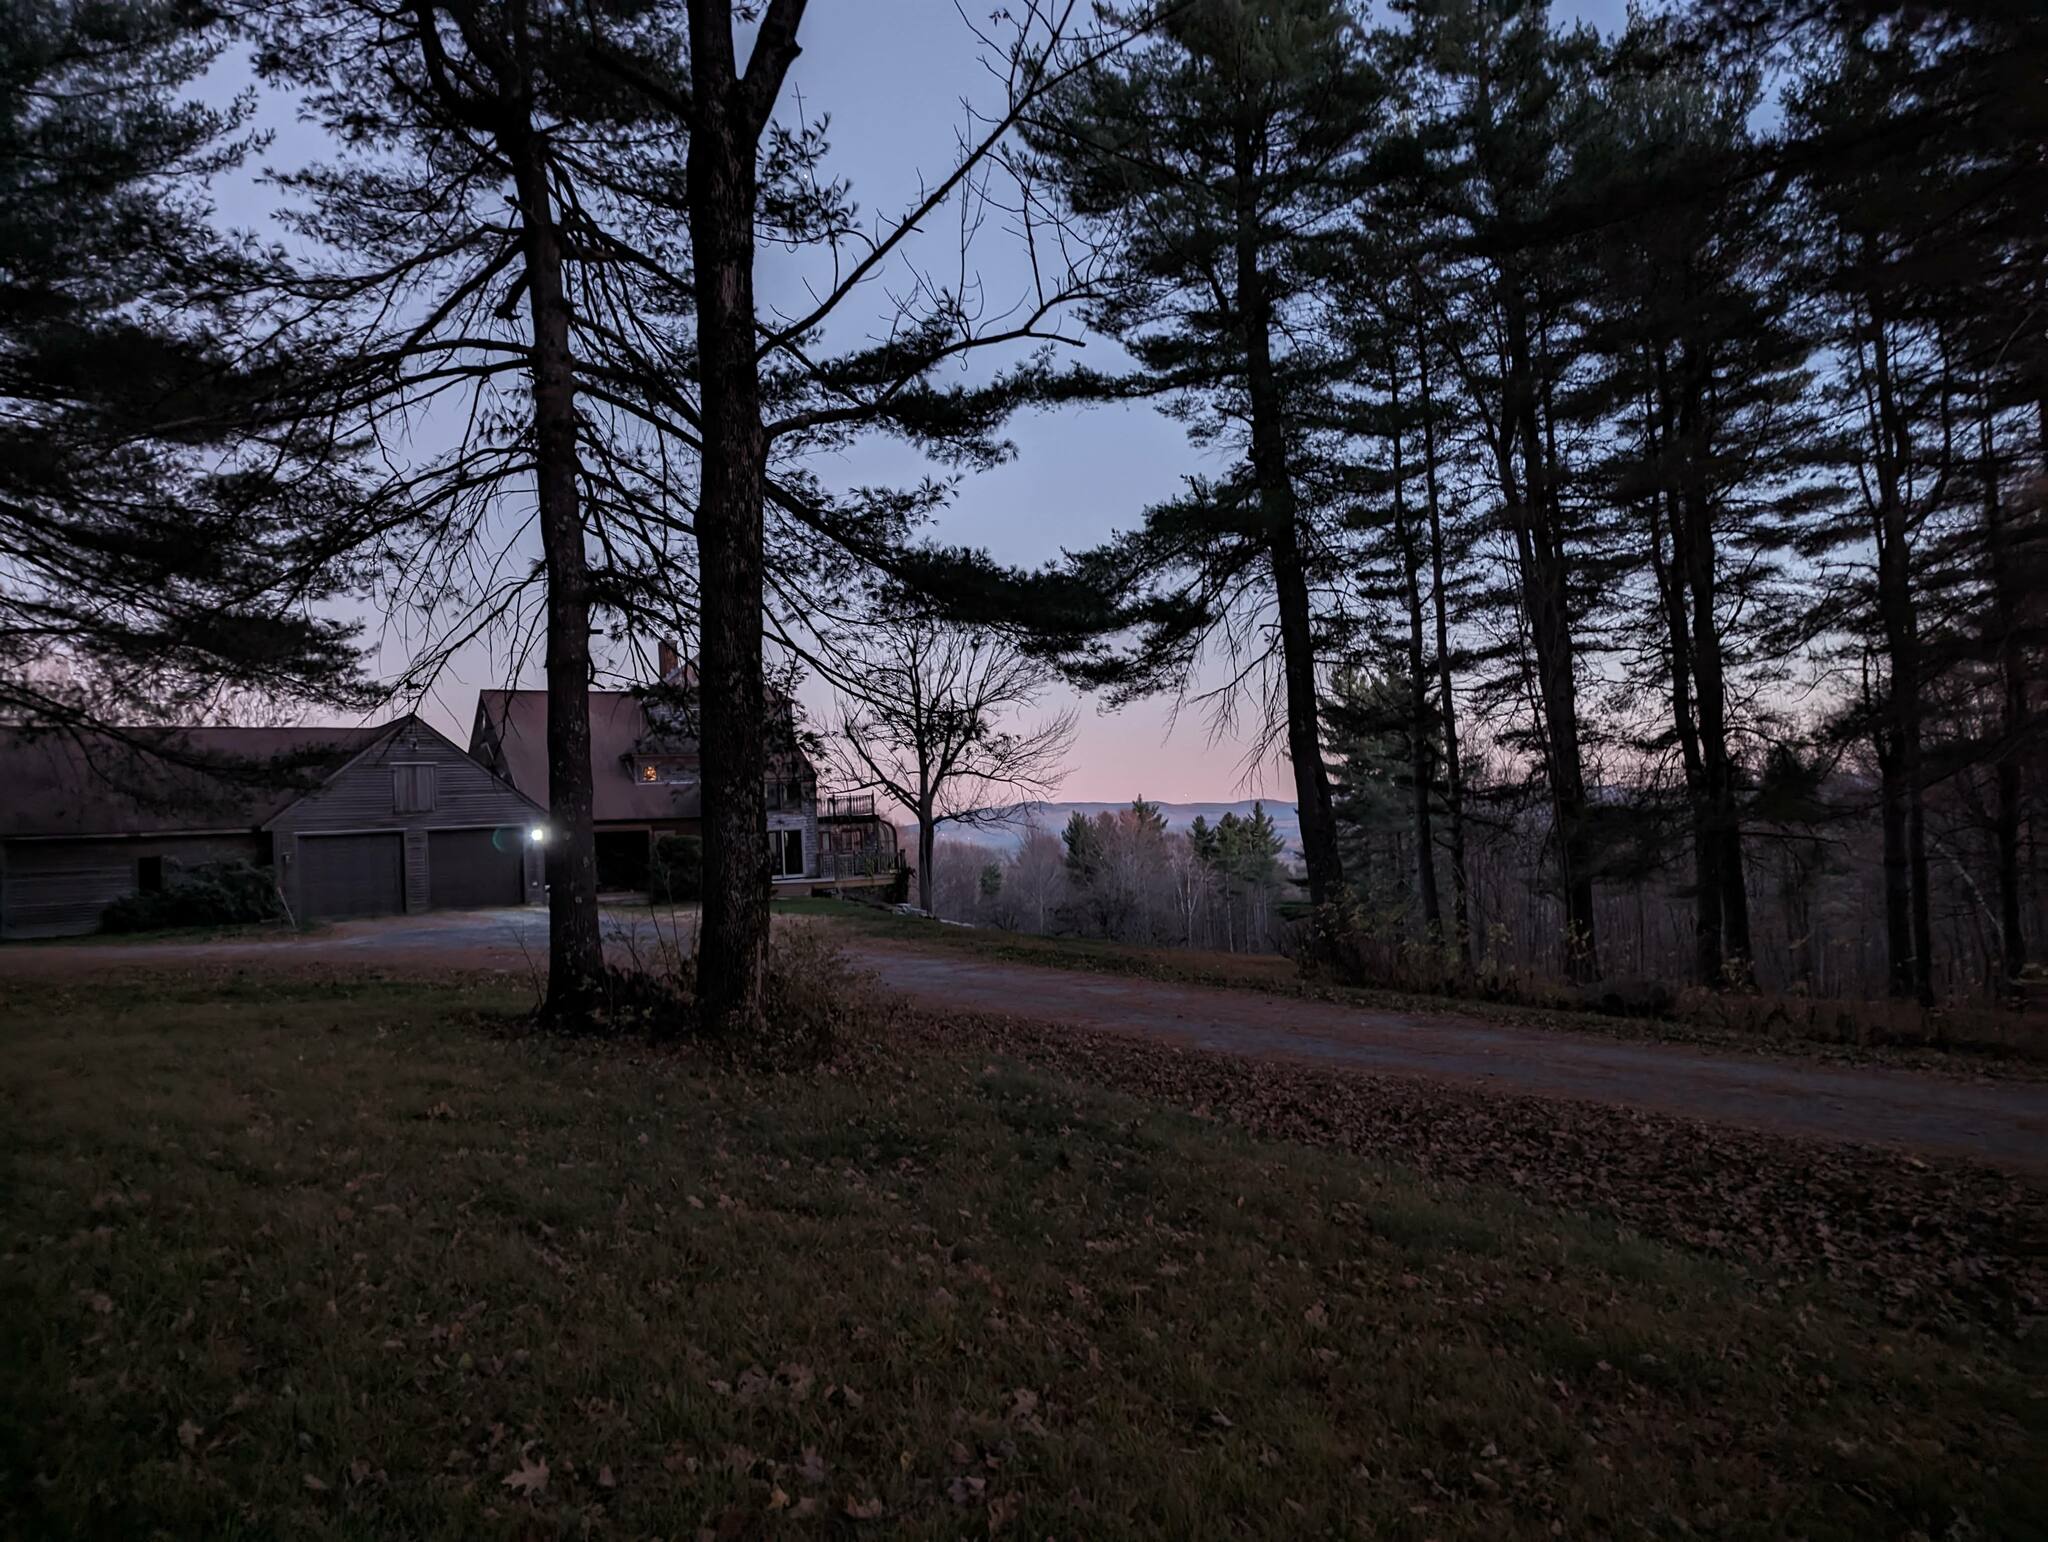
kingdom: Plantae
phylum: Tracheophyta
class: Pinopsida
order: Pinales
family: Pinaceae
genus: Pinus
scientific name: Pinus strobus
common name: Weymouth pine
